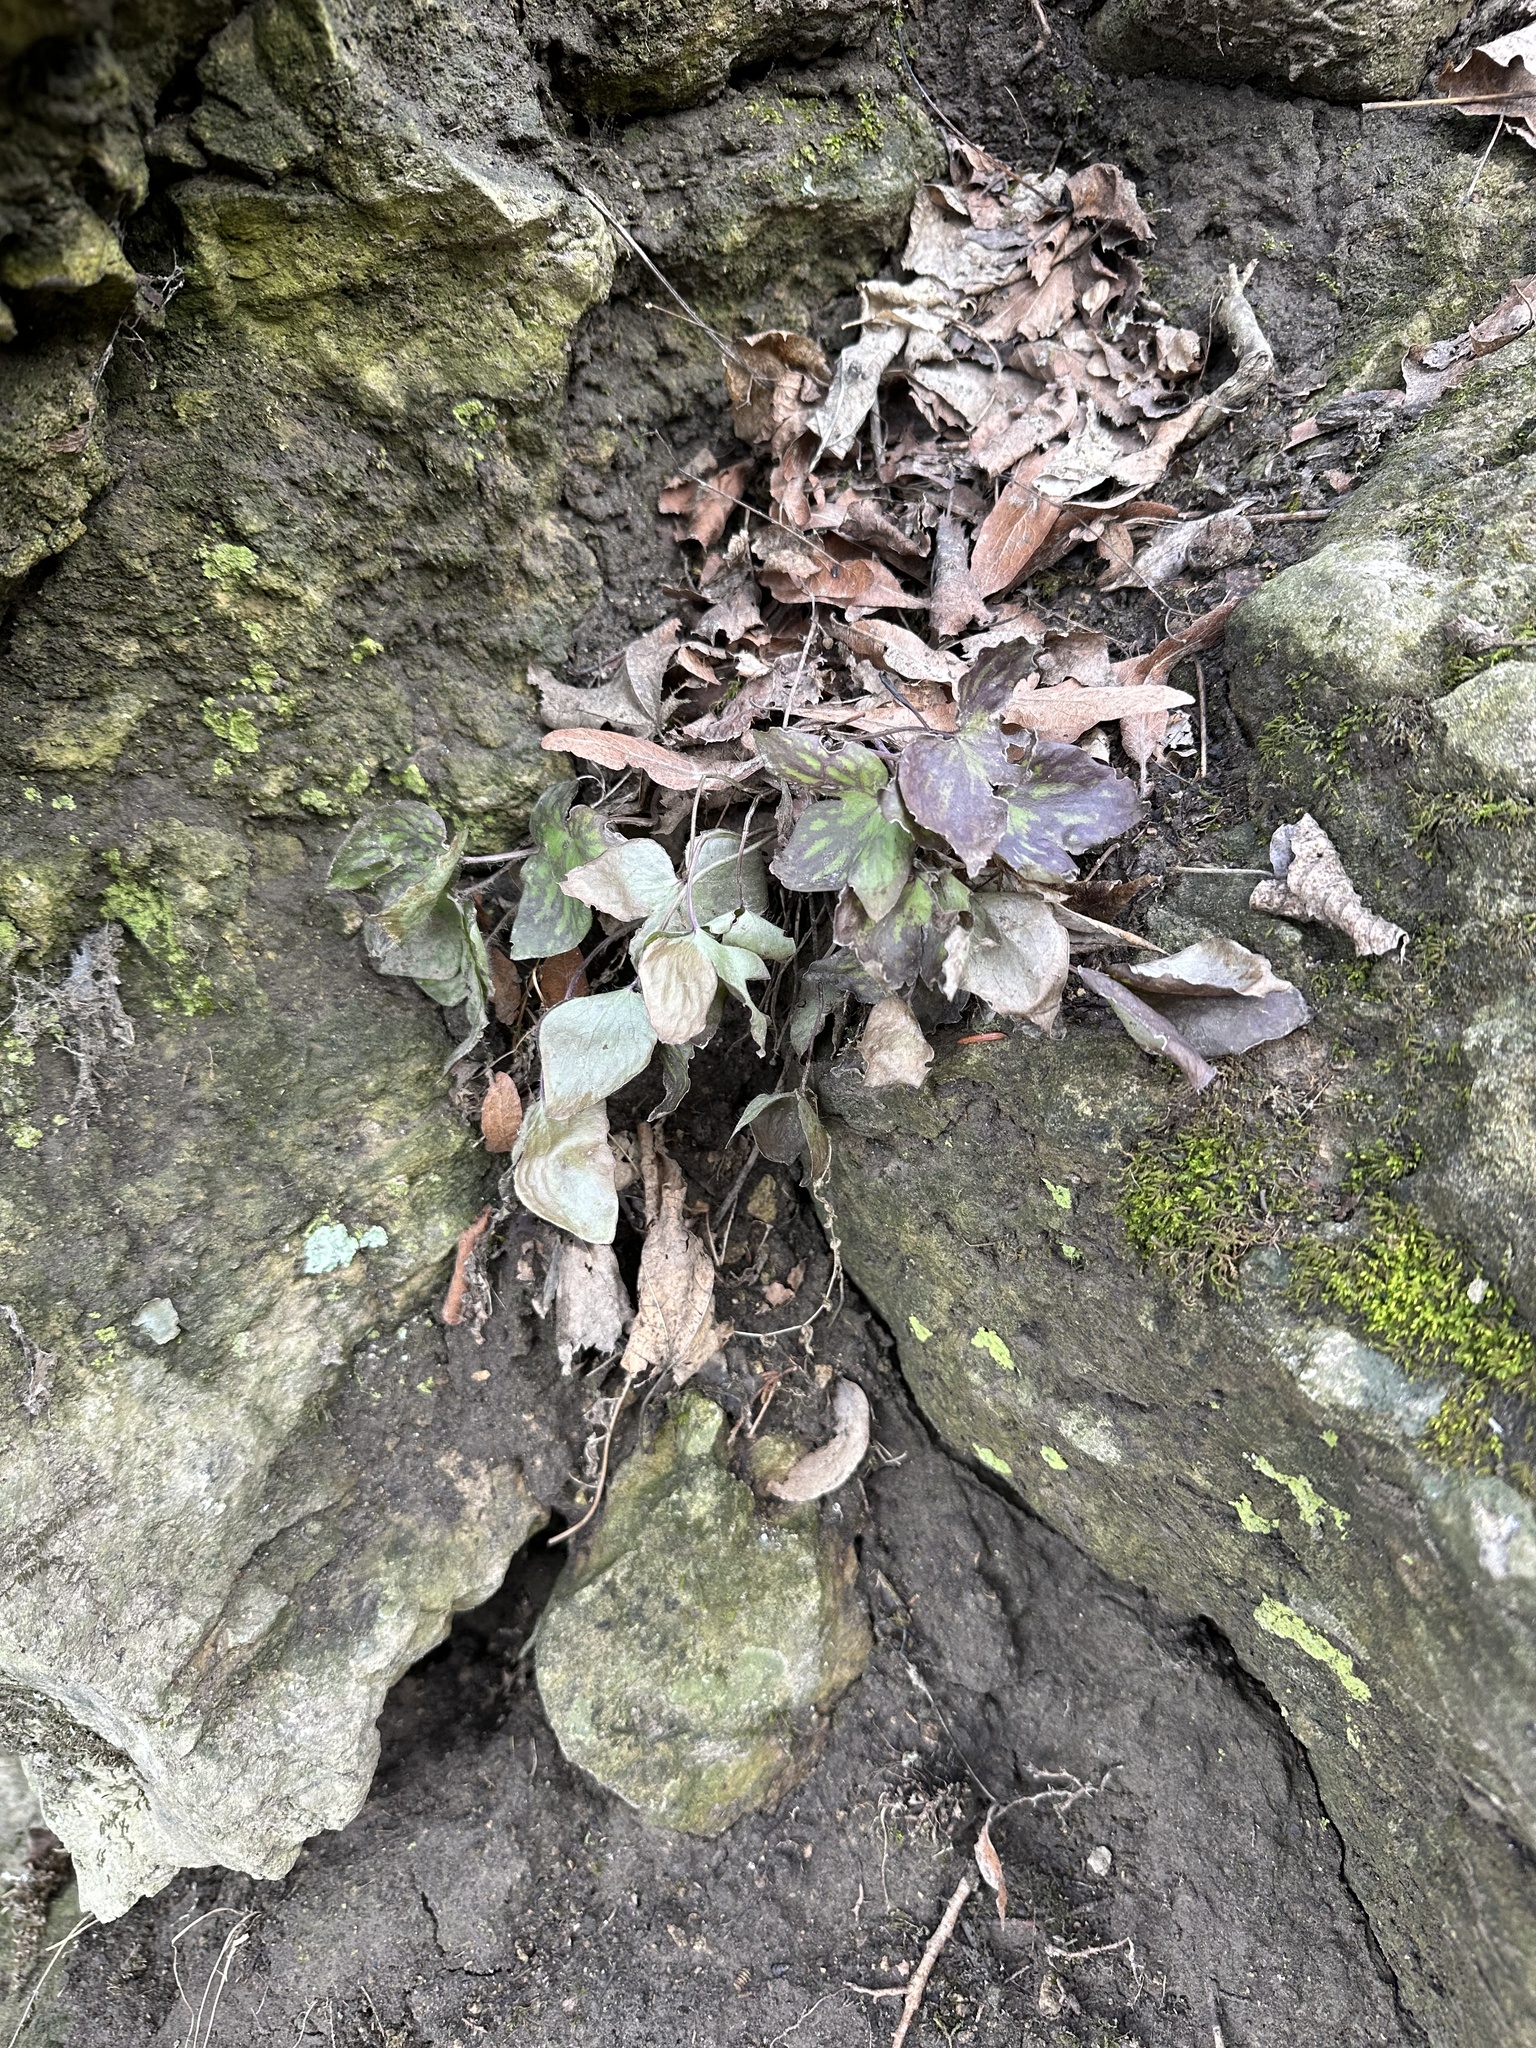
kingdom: Plantae
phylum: Tracheophyta
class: Magnoliopsida
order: Ranunculales
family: Ranunculaceae
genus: Hepatica
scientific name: Hepatica acutiloba
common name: Sharp-lobed hepatica
